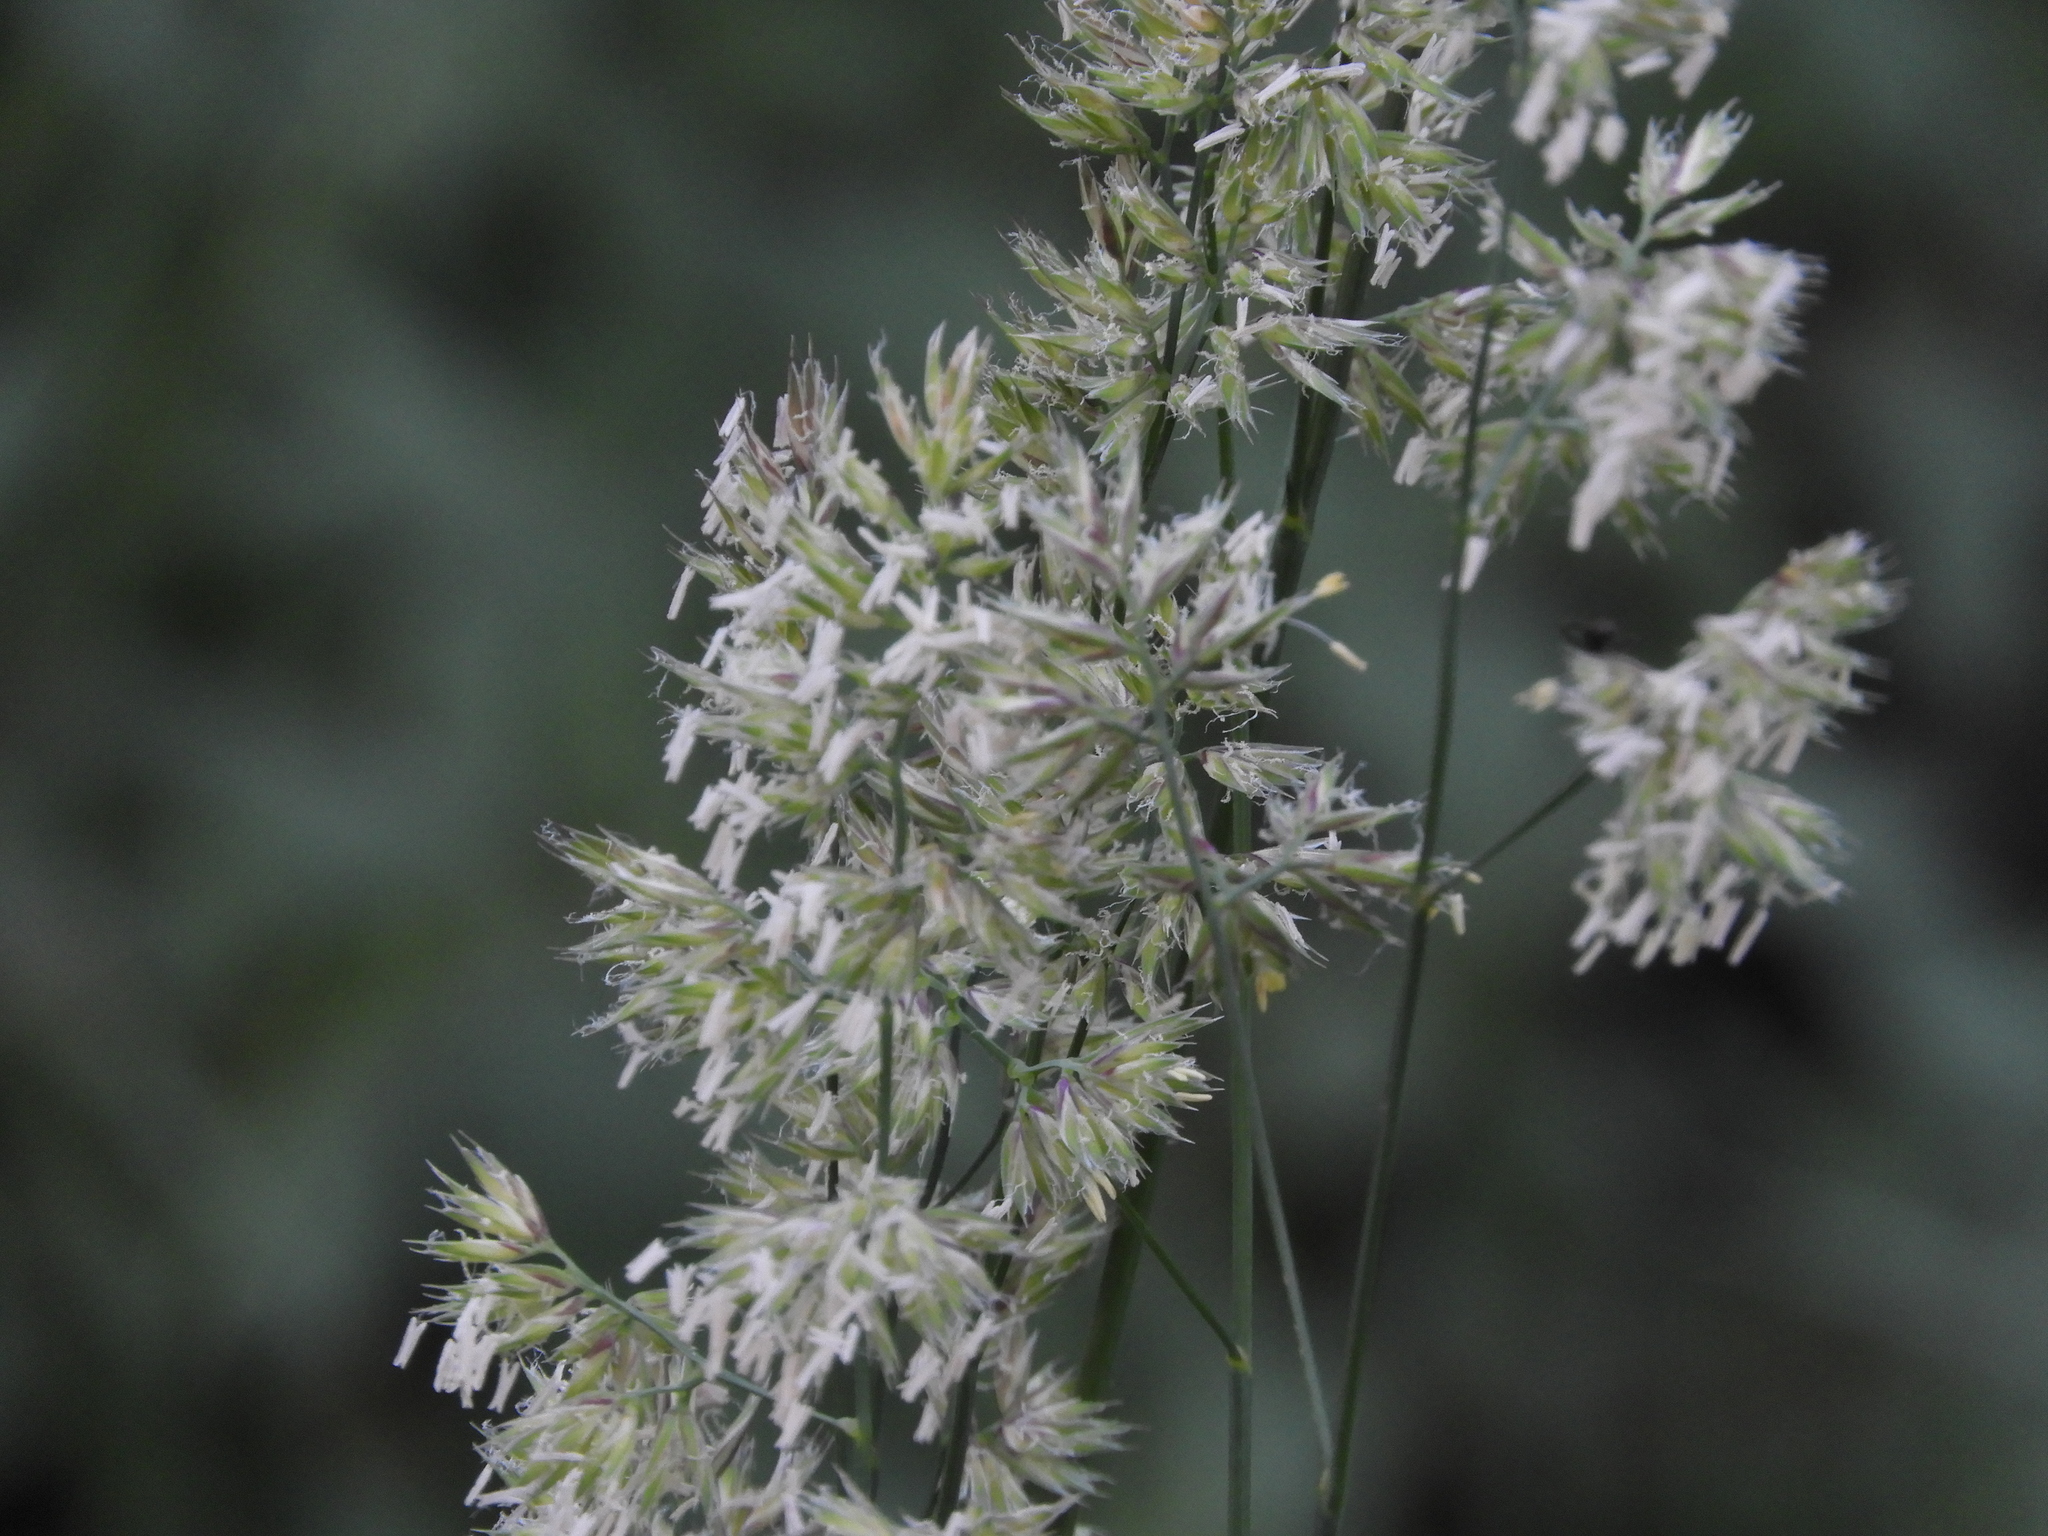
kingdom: Plantae
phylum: Tracheophyta
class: Liliopsida
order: Poales
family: Poaceae
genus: Dactylis
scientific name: Dactylis glomerata
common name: Orchardgrass
